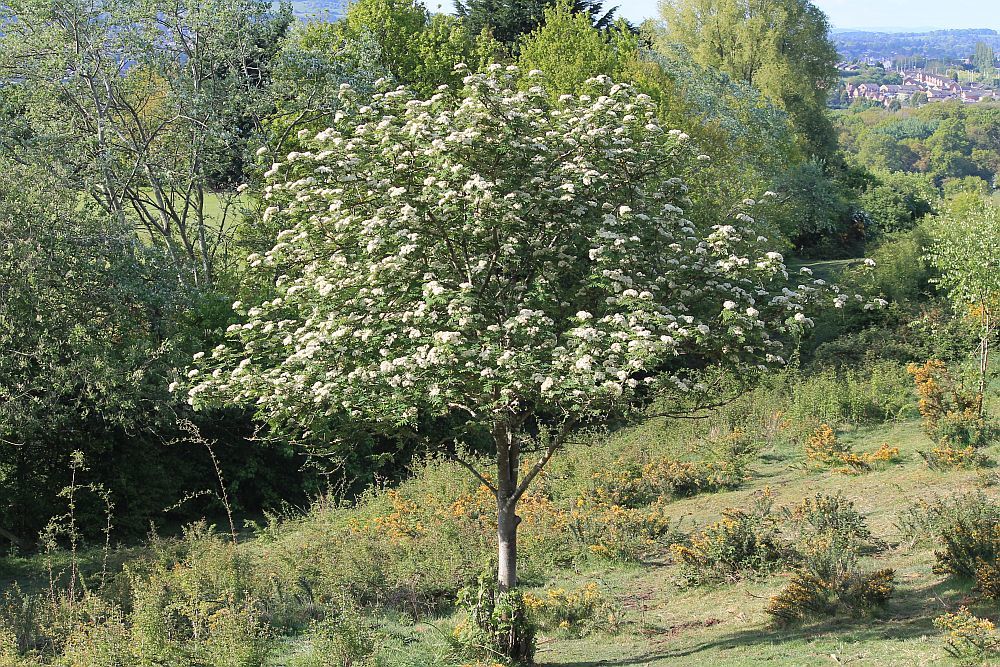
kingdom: Plantae
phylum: Tracheophyta
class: Magnoliopsida
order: Rosales
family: Rosaceae
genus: Sorbus
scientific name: Sorbus aucuparia
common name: Rowan
